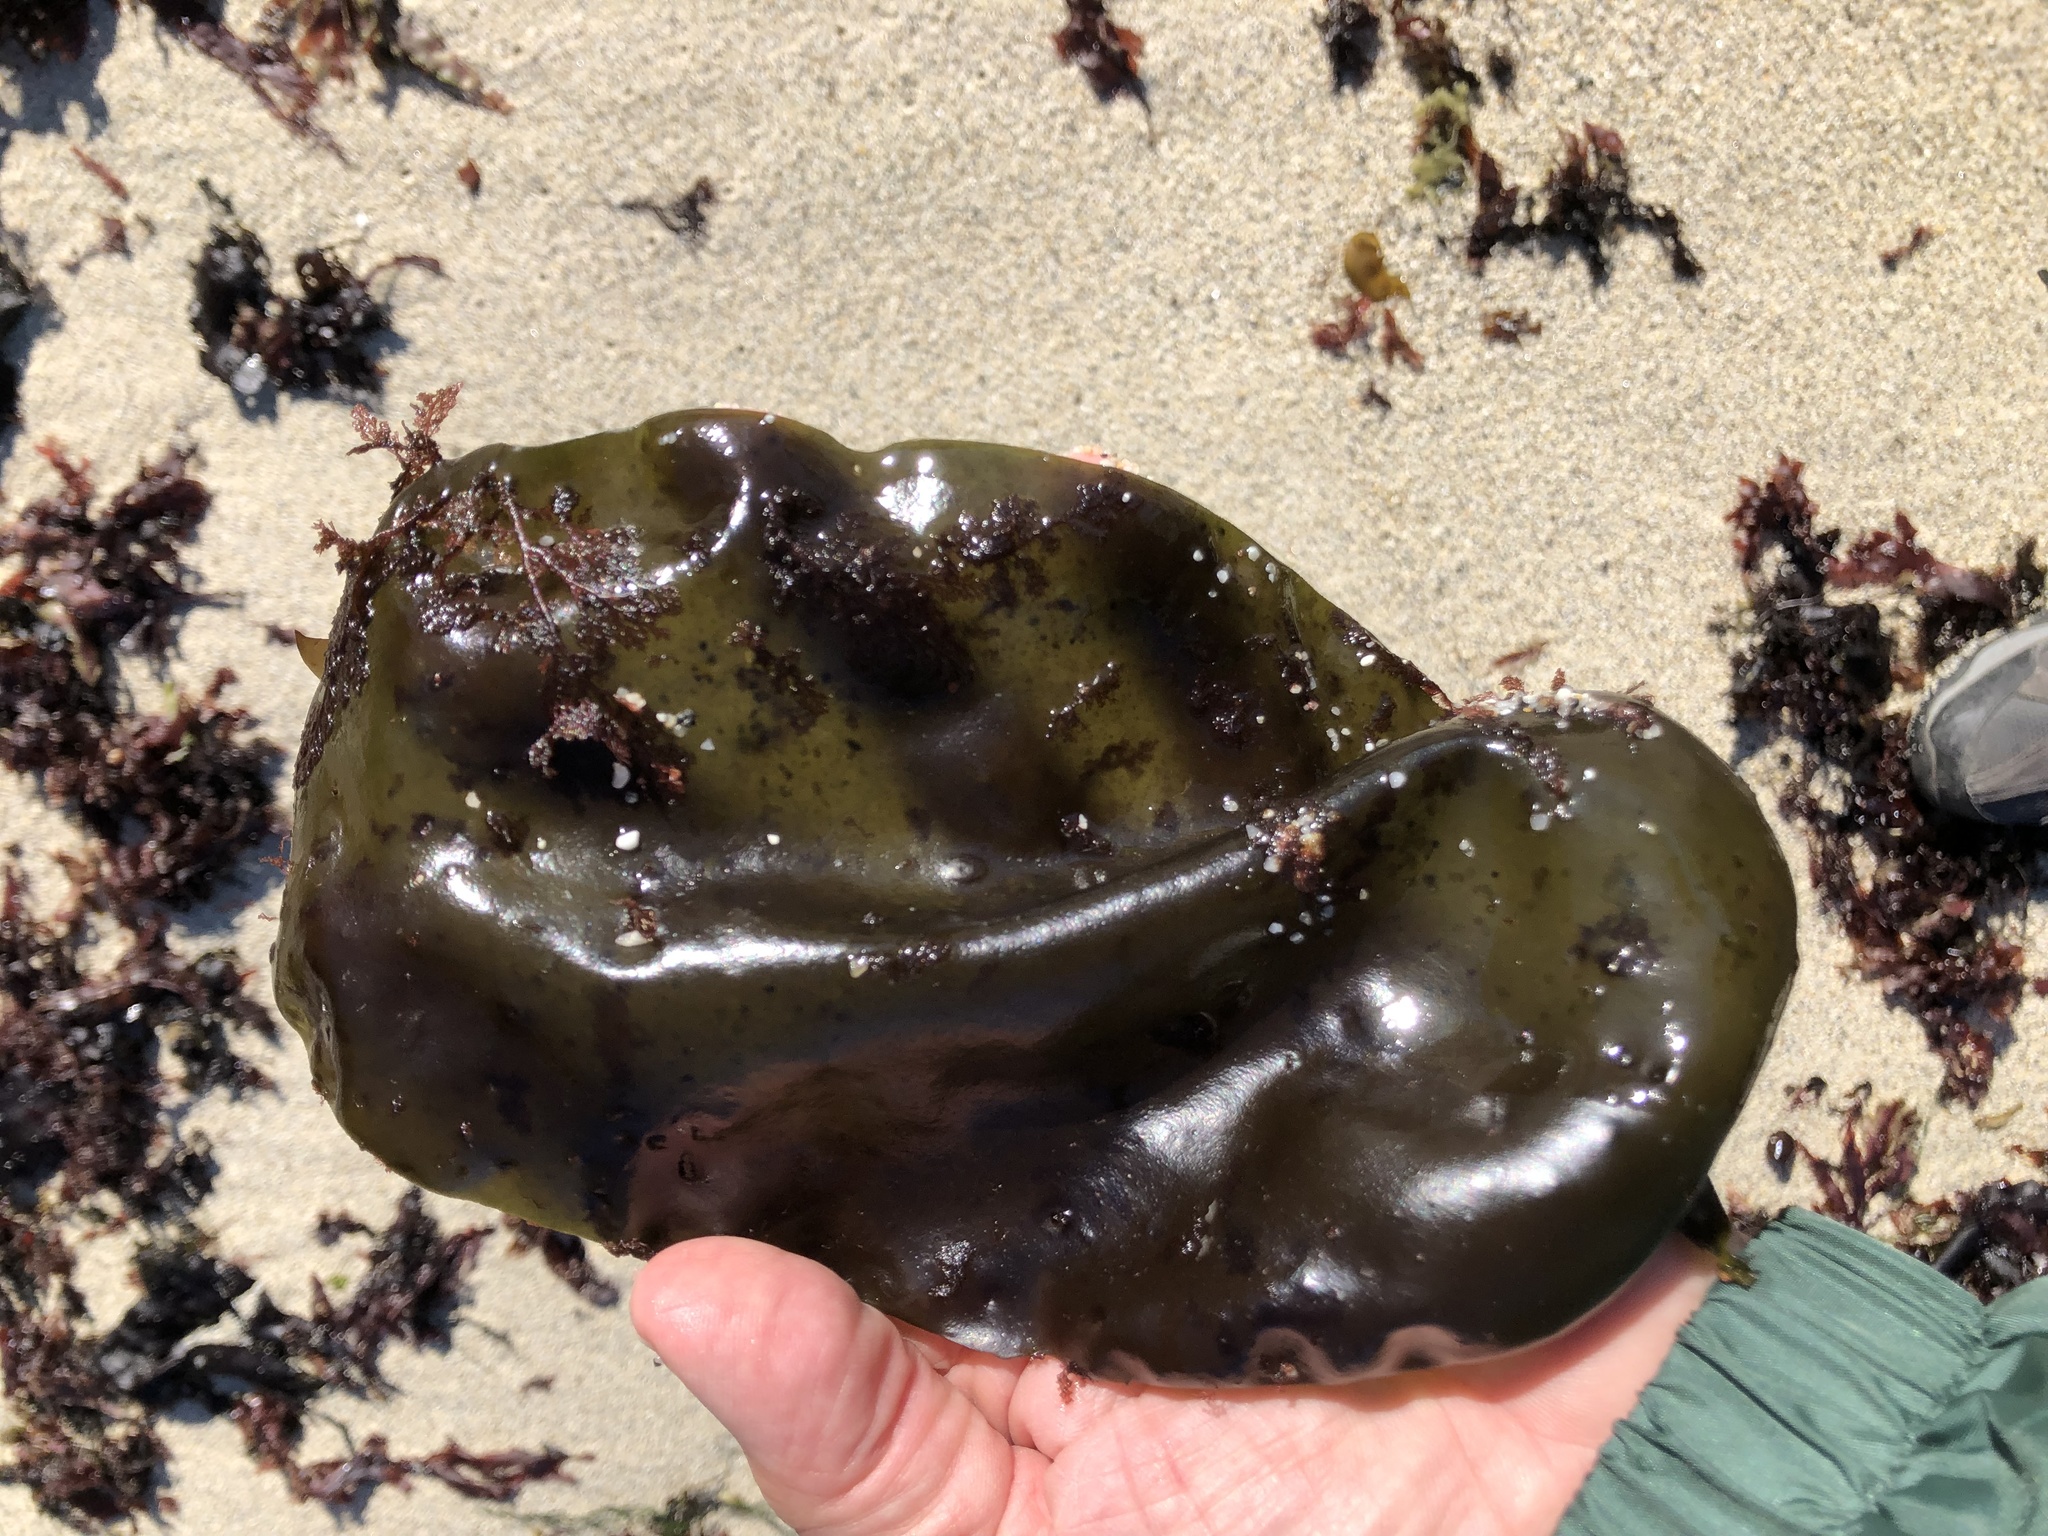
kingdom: Plantae
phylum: Rhodophyta
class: Florideophyceae
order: Gigartinales
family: Gigartinaceae
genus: Mazzaella
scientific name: Mazzaella flaccida
